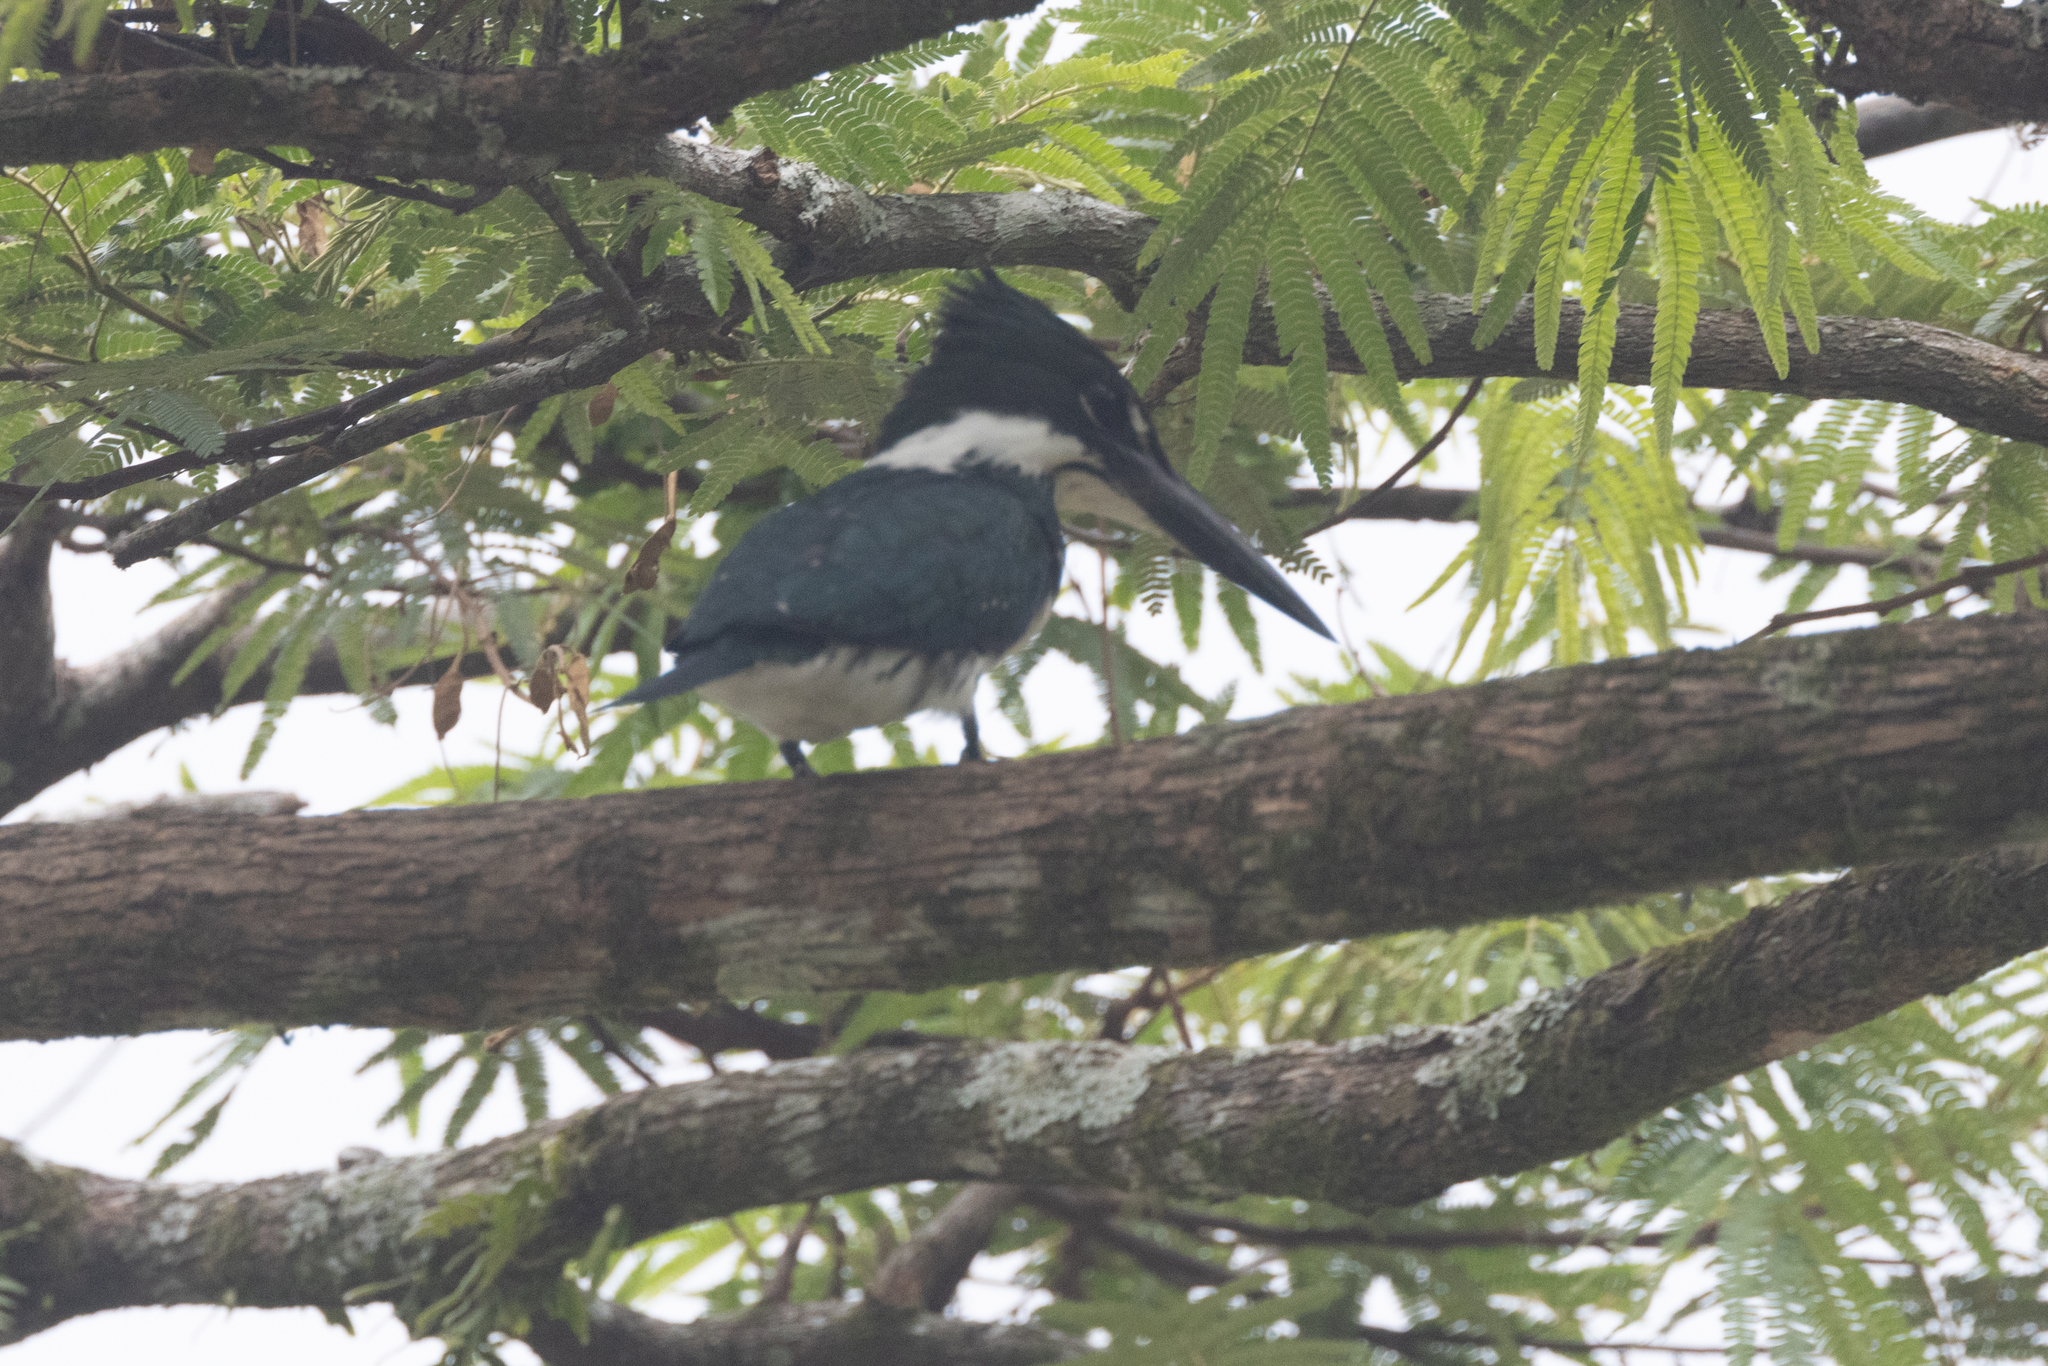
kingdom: Animalia
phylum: Chordata
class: Aves
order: Coraciiformes
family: Alcedinidae
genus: Chloroceryle
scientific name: Chloroceryle amazona
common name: Amazon kingfisher
